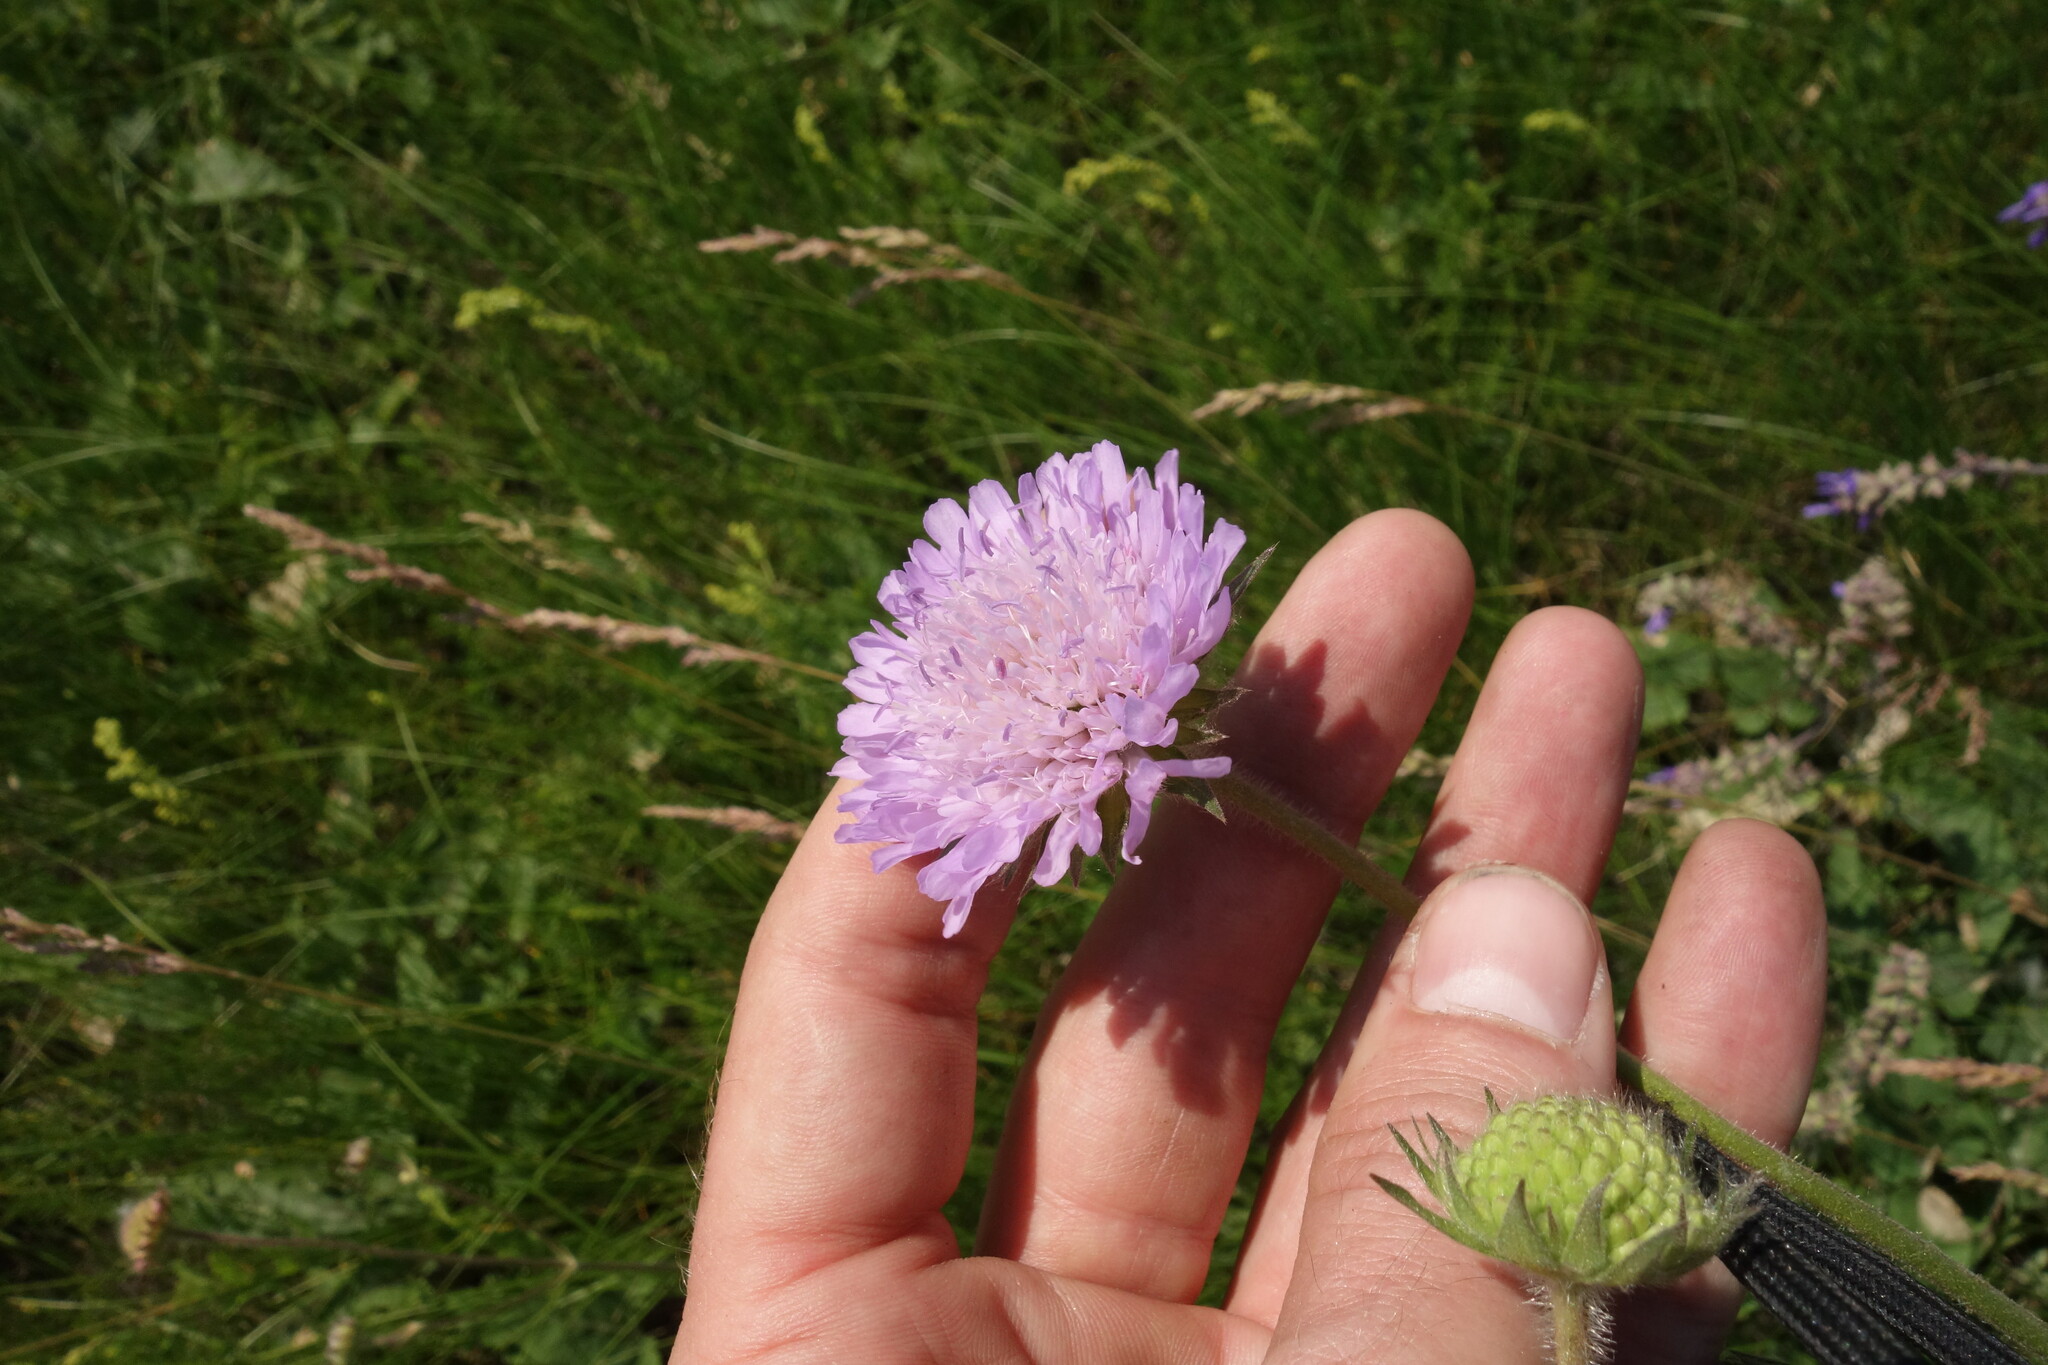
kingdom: Plantae
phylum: Tracheophyta
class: Magnoliopsida
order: Dipsacales
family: Caprifoliaceae
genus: Knautia
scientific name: Knautia arvensis
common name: Field scabiosa
